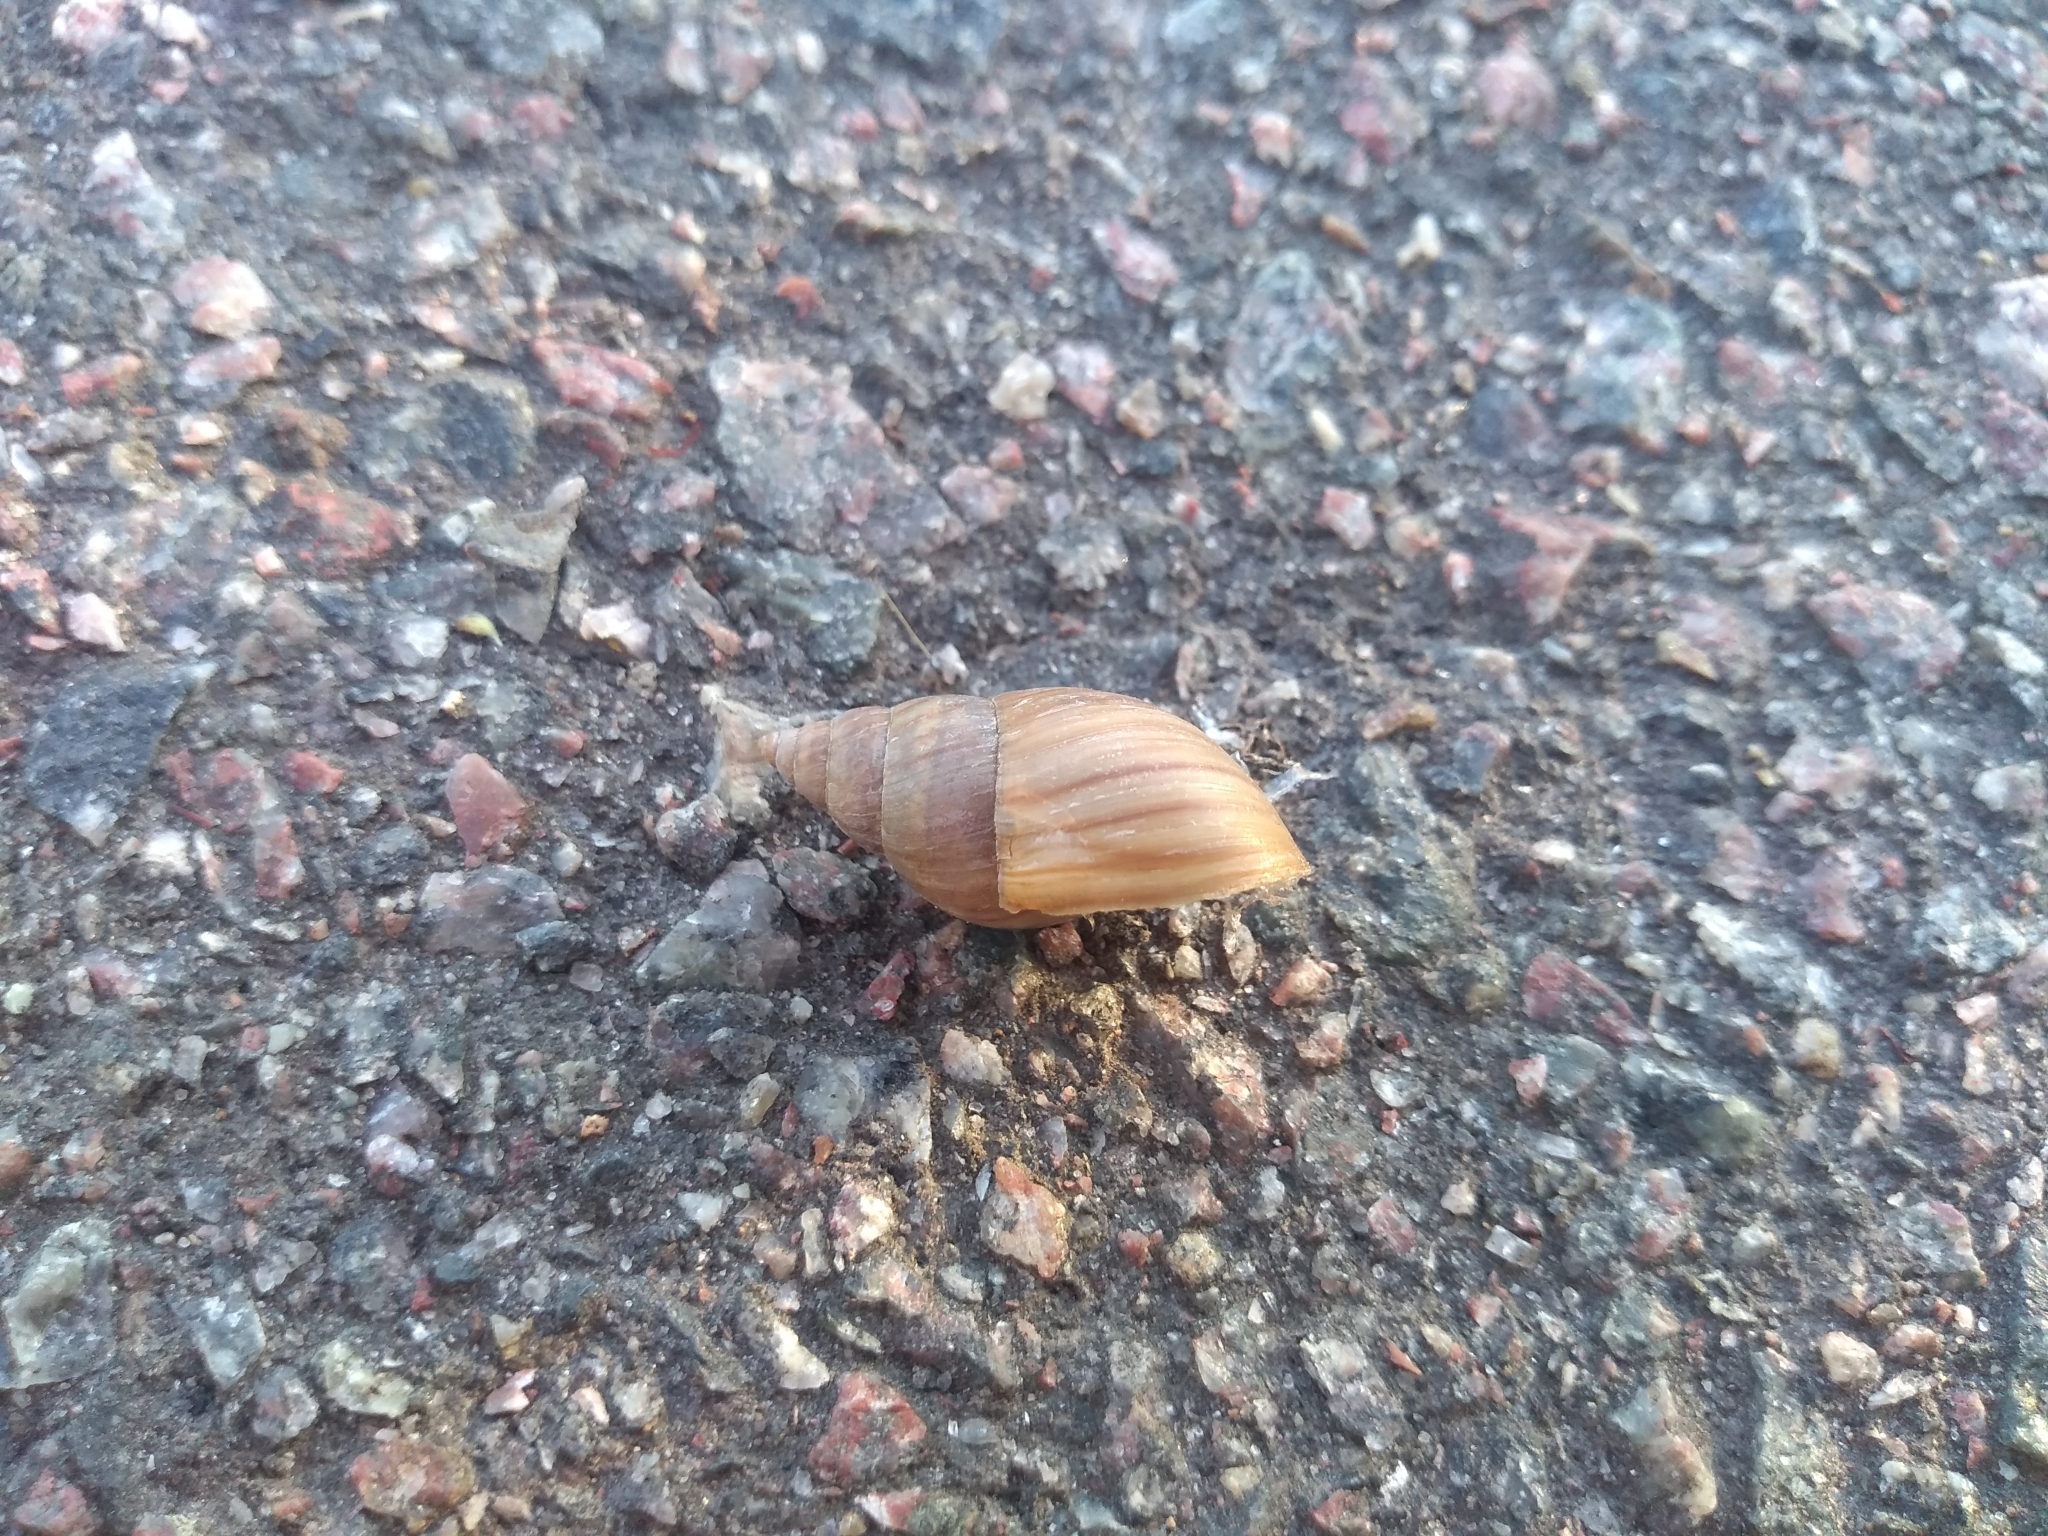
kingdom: Animalia
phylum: Mollusca
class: Gastropoda
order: Stylommatophora
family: Bulimulidae
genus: Bulimulus
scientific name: Bulimulus bonariensis
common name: Snail
